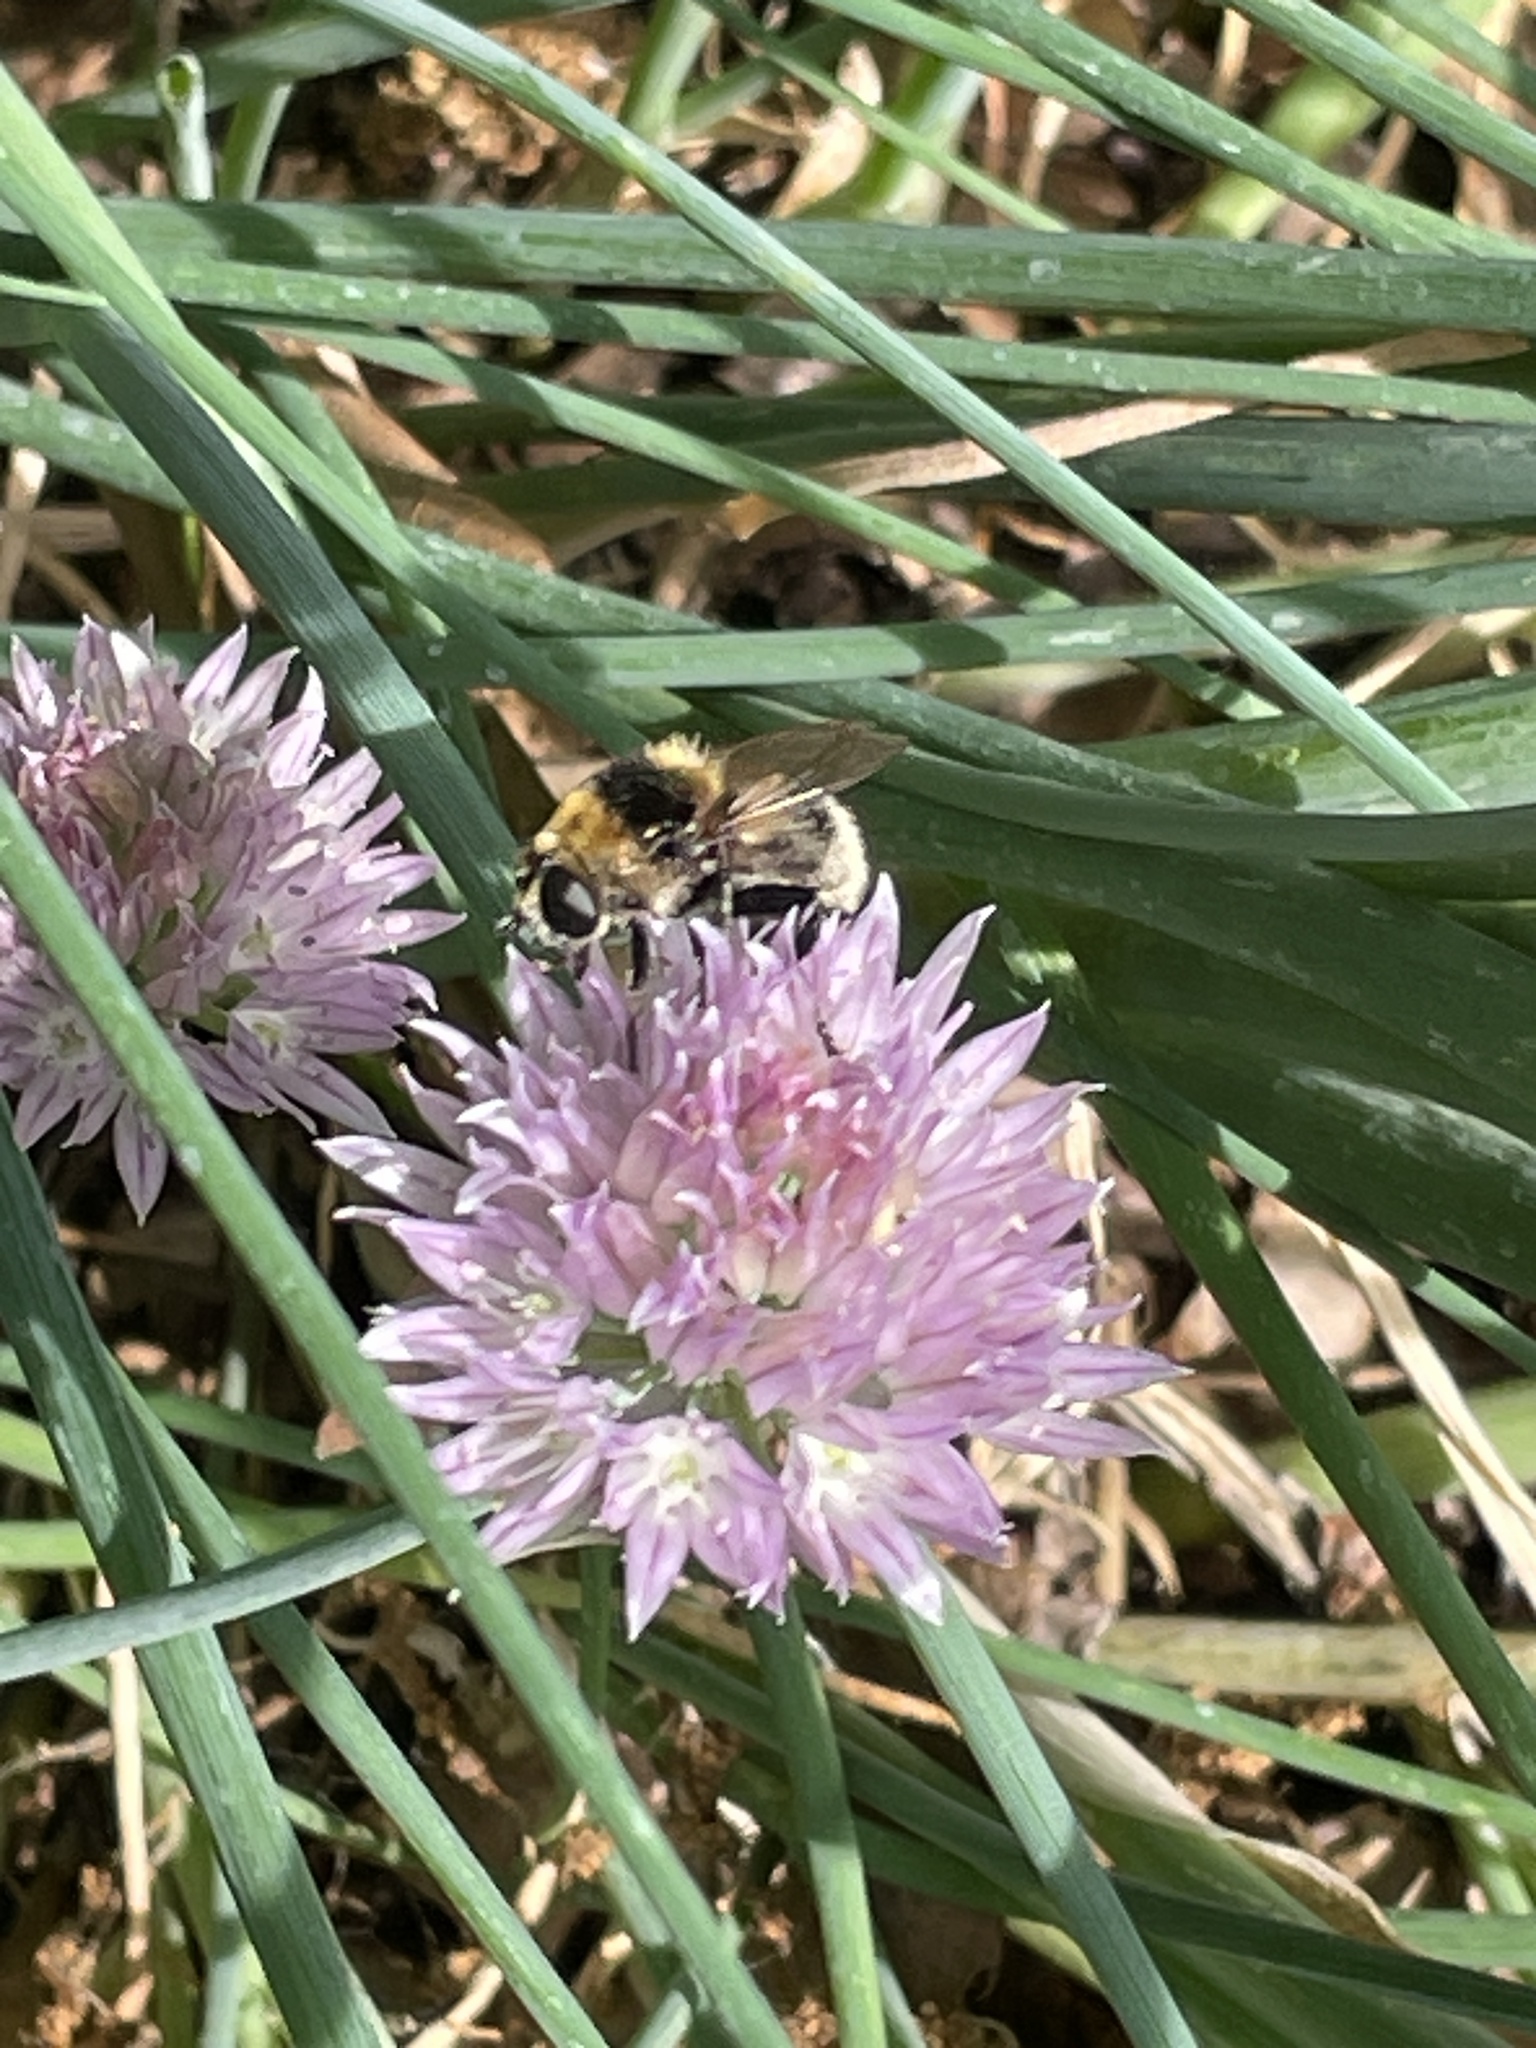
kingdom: Animalia
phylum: Arthropoda
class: Insecta
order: Diptera
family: Syrphidae
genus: Merodon
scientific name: Merodon equestris
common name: Greater bulb-fly
